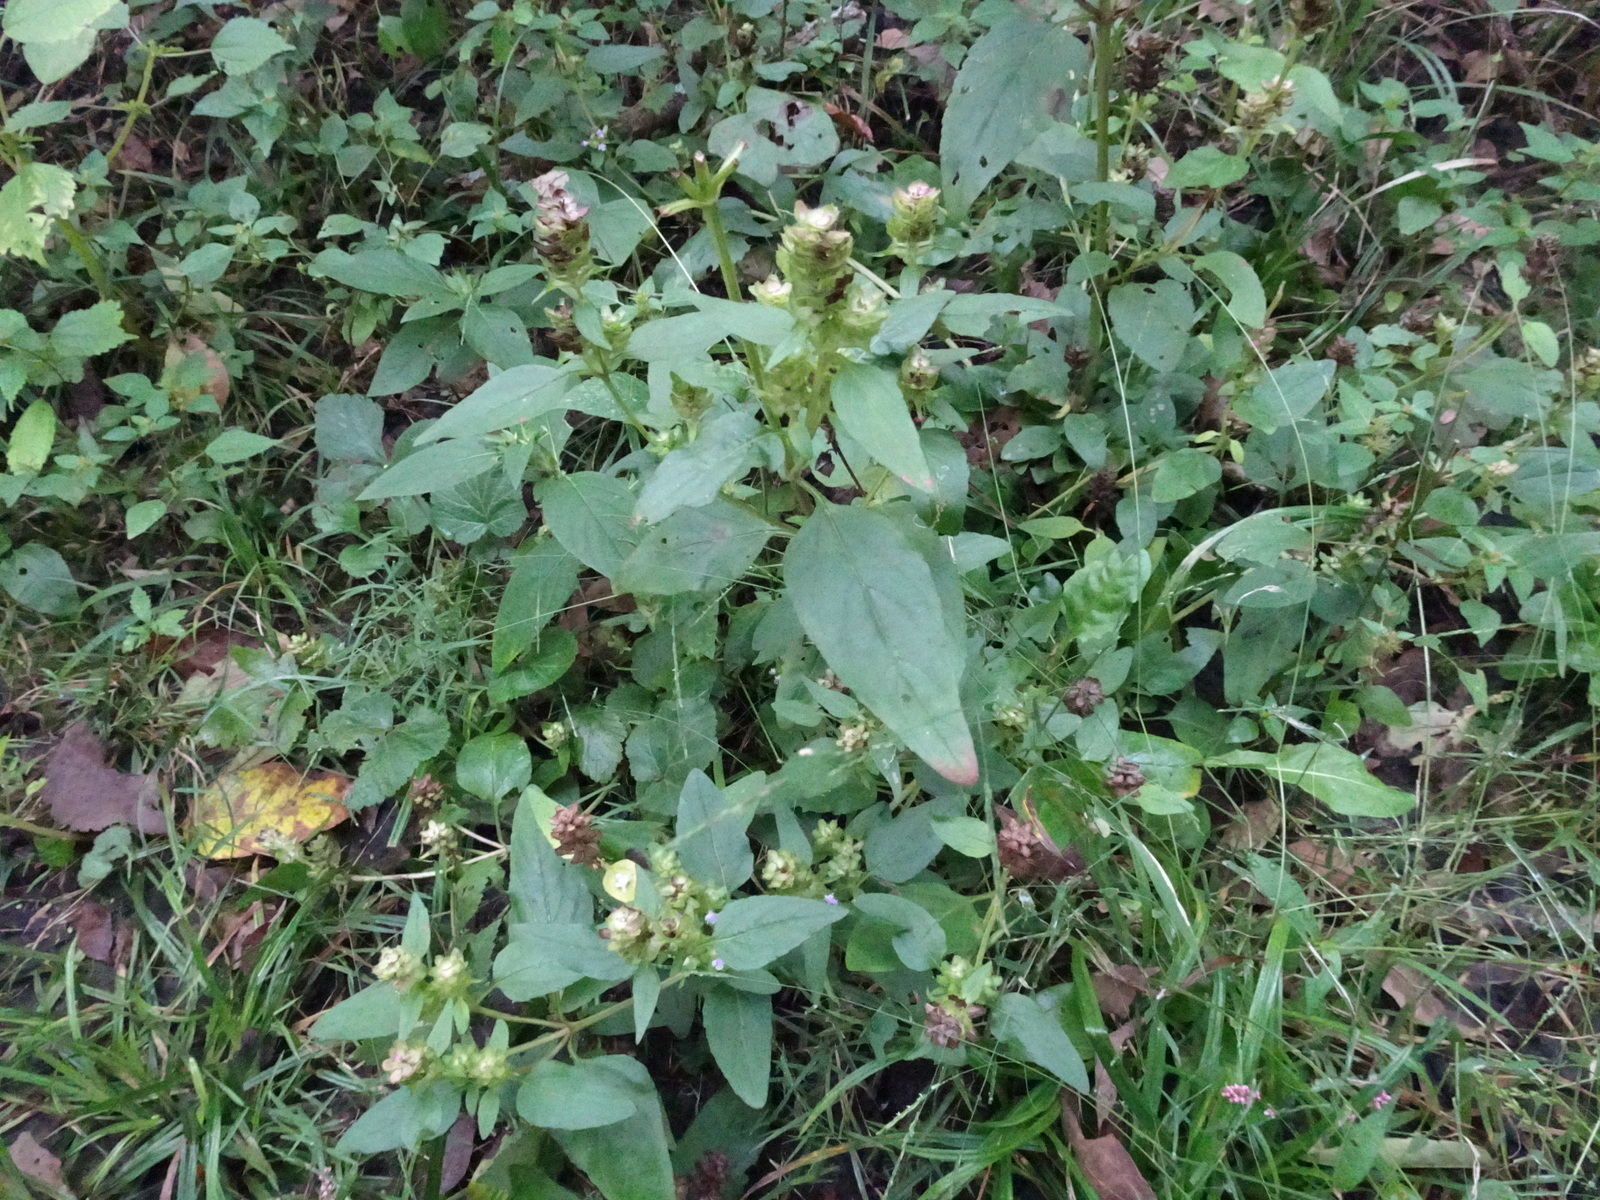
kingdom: Plantae
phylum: Tracheophyta
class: Magnoliopsida
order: Lamiales
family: Lamiaceae
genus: Prunella
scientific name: Prunella vulgaris
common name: Heal-all
